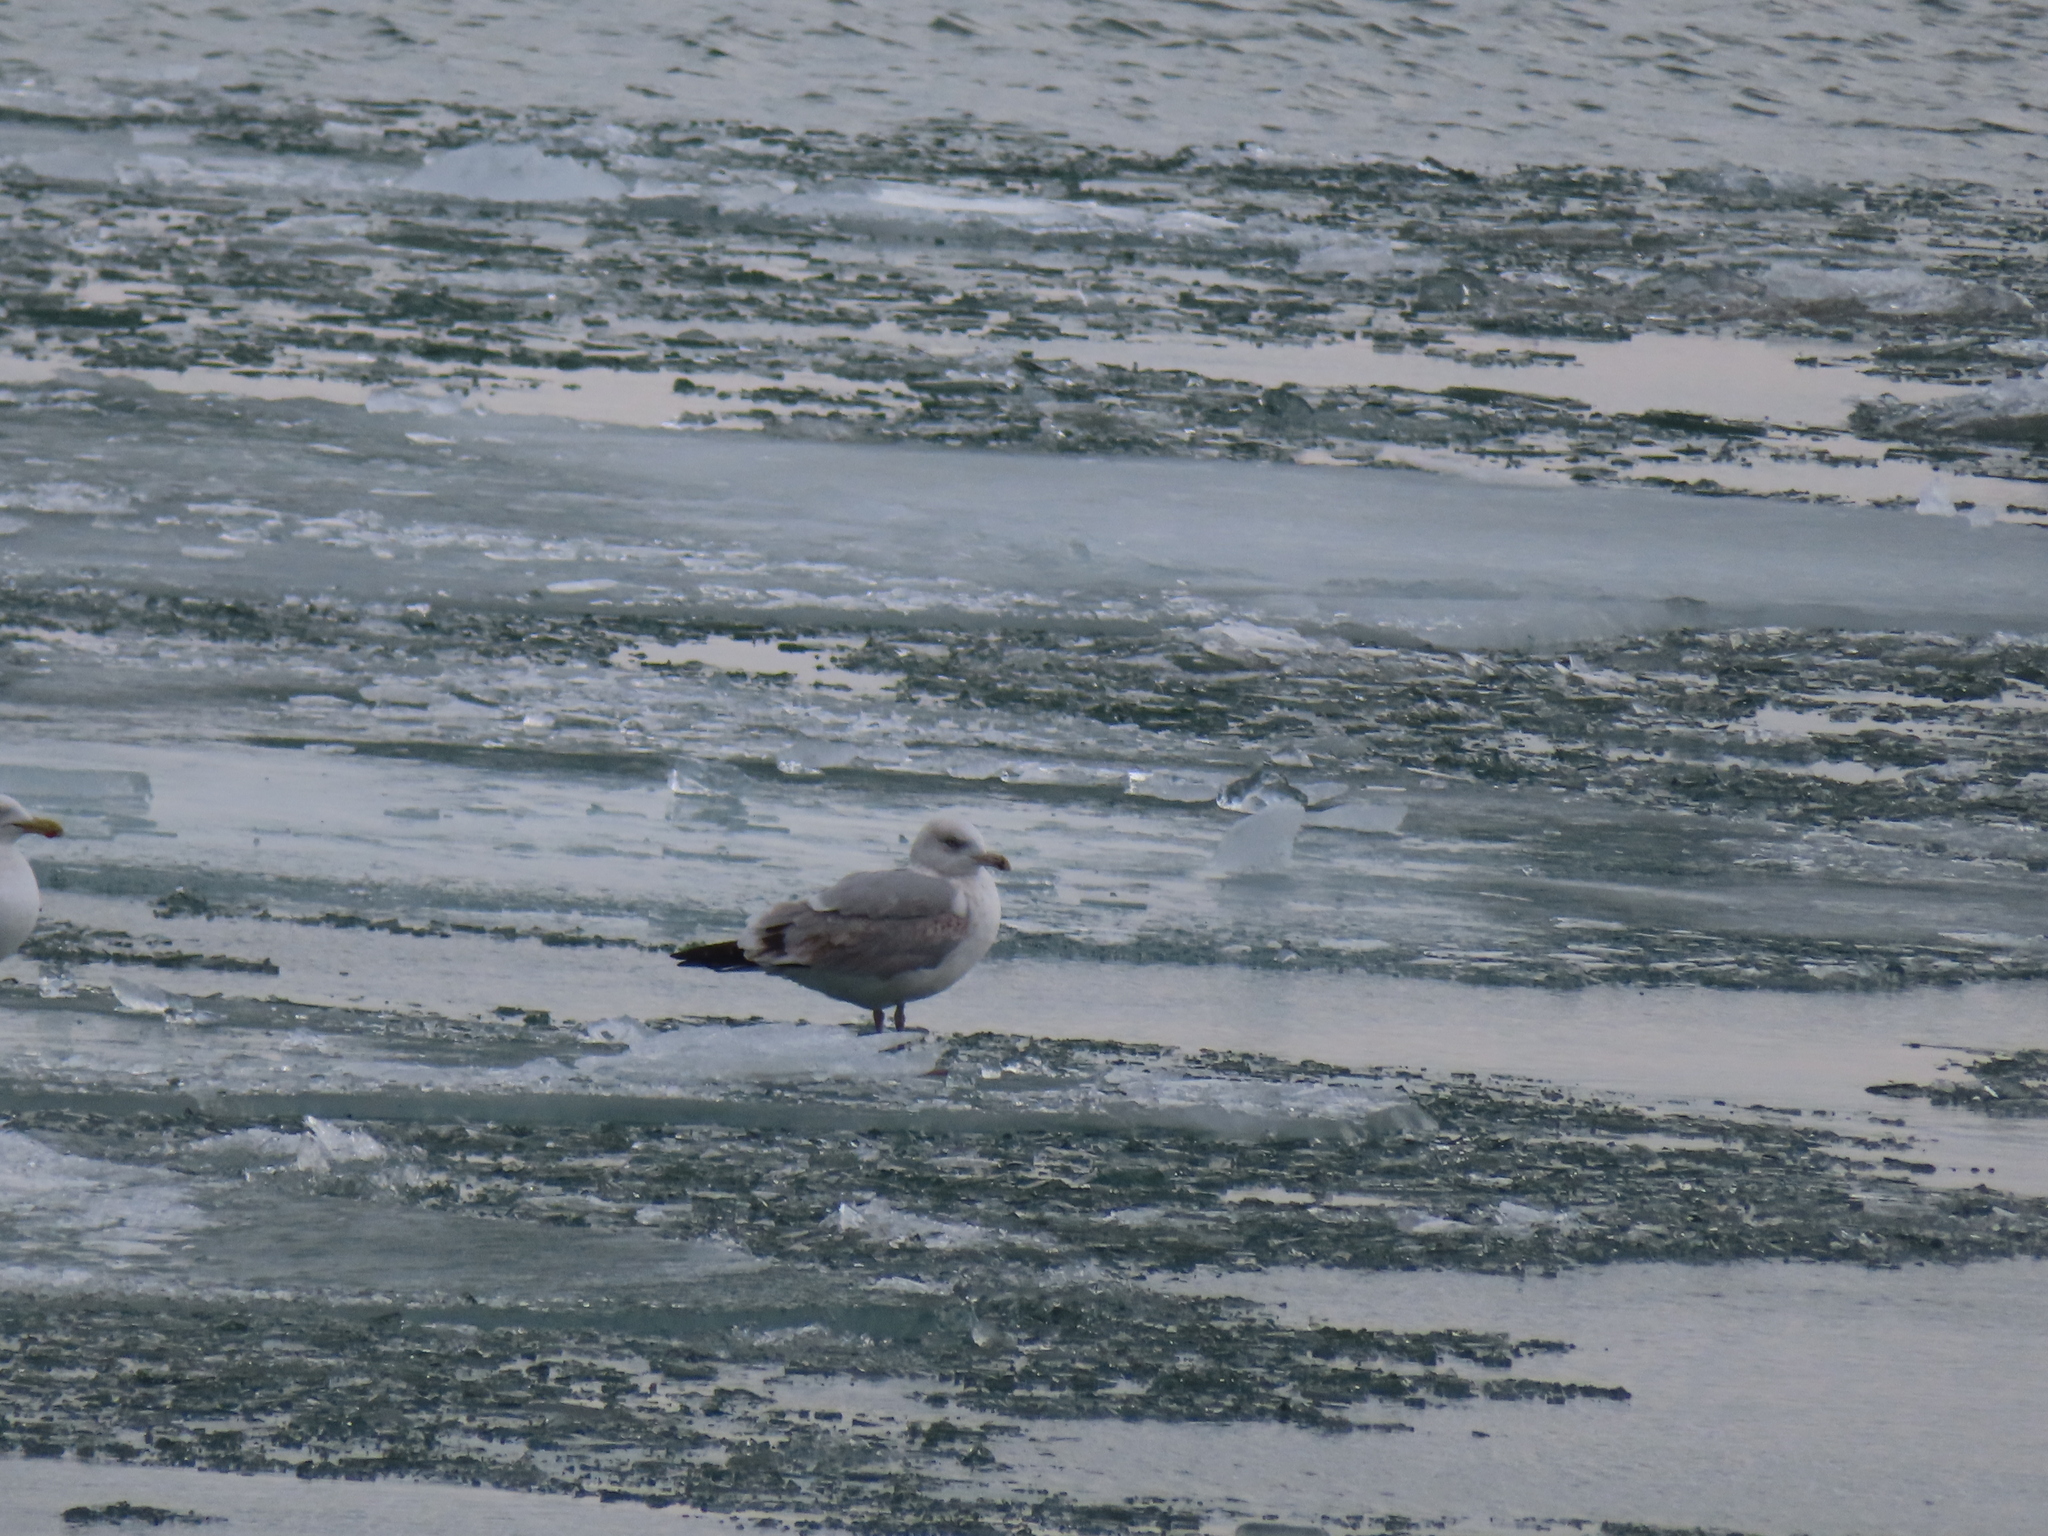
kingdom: Animalia
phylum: Chordata
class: Aves
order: Charadriiformes
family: Laridae
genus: Larus
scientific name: Larus argentatus
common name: Herring gull
